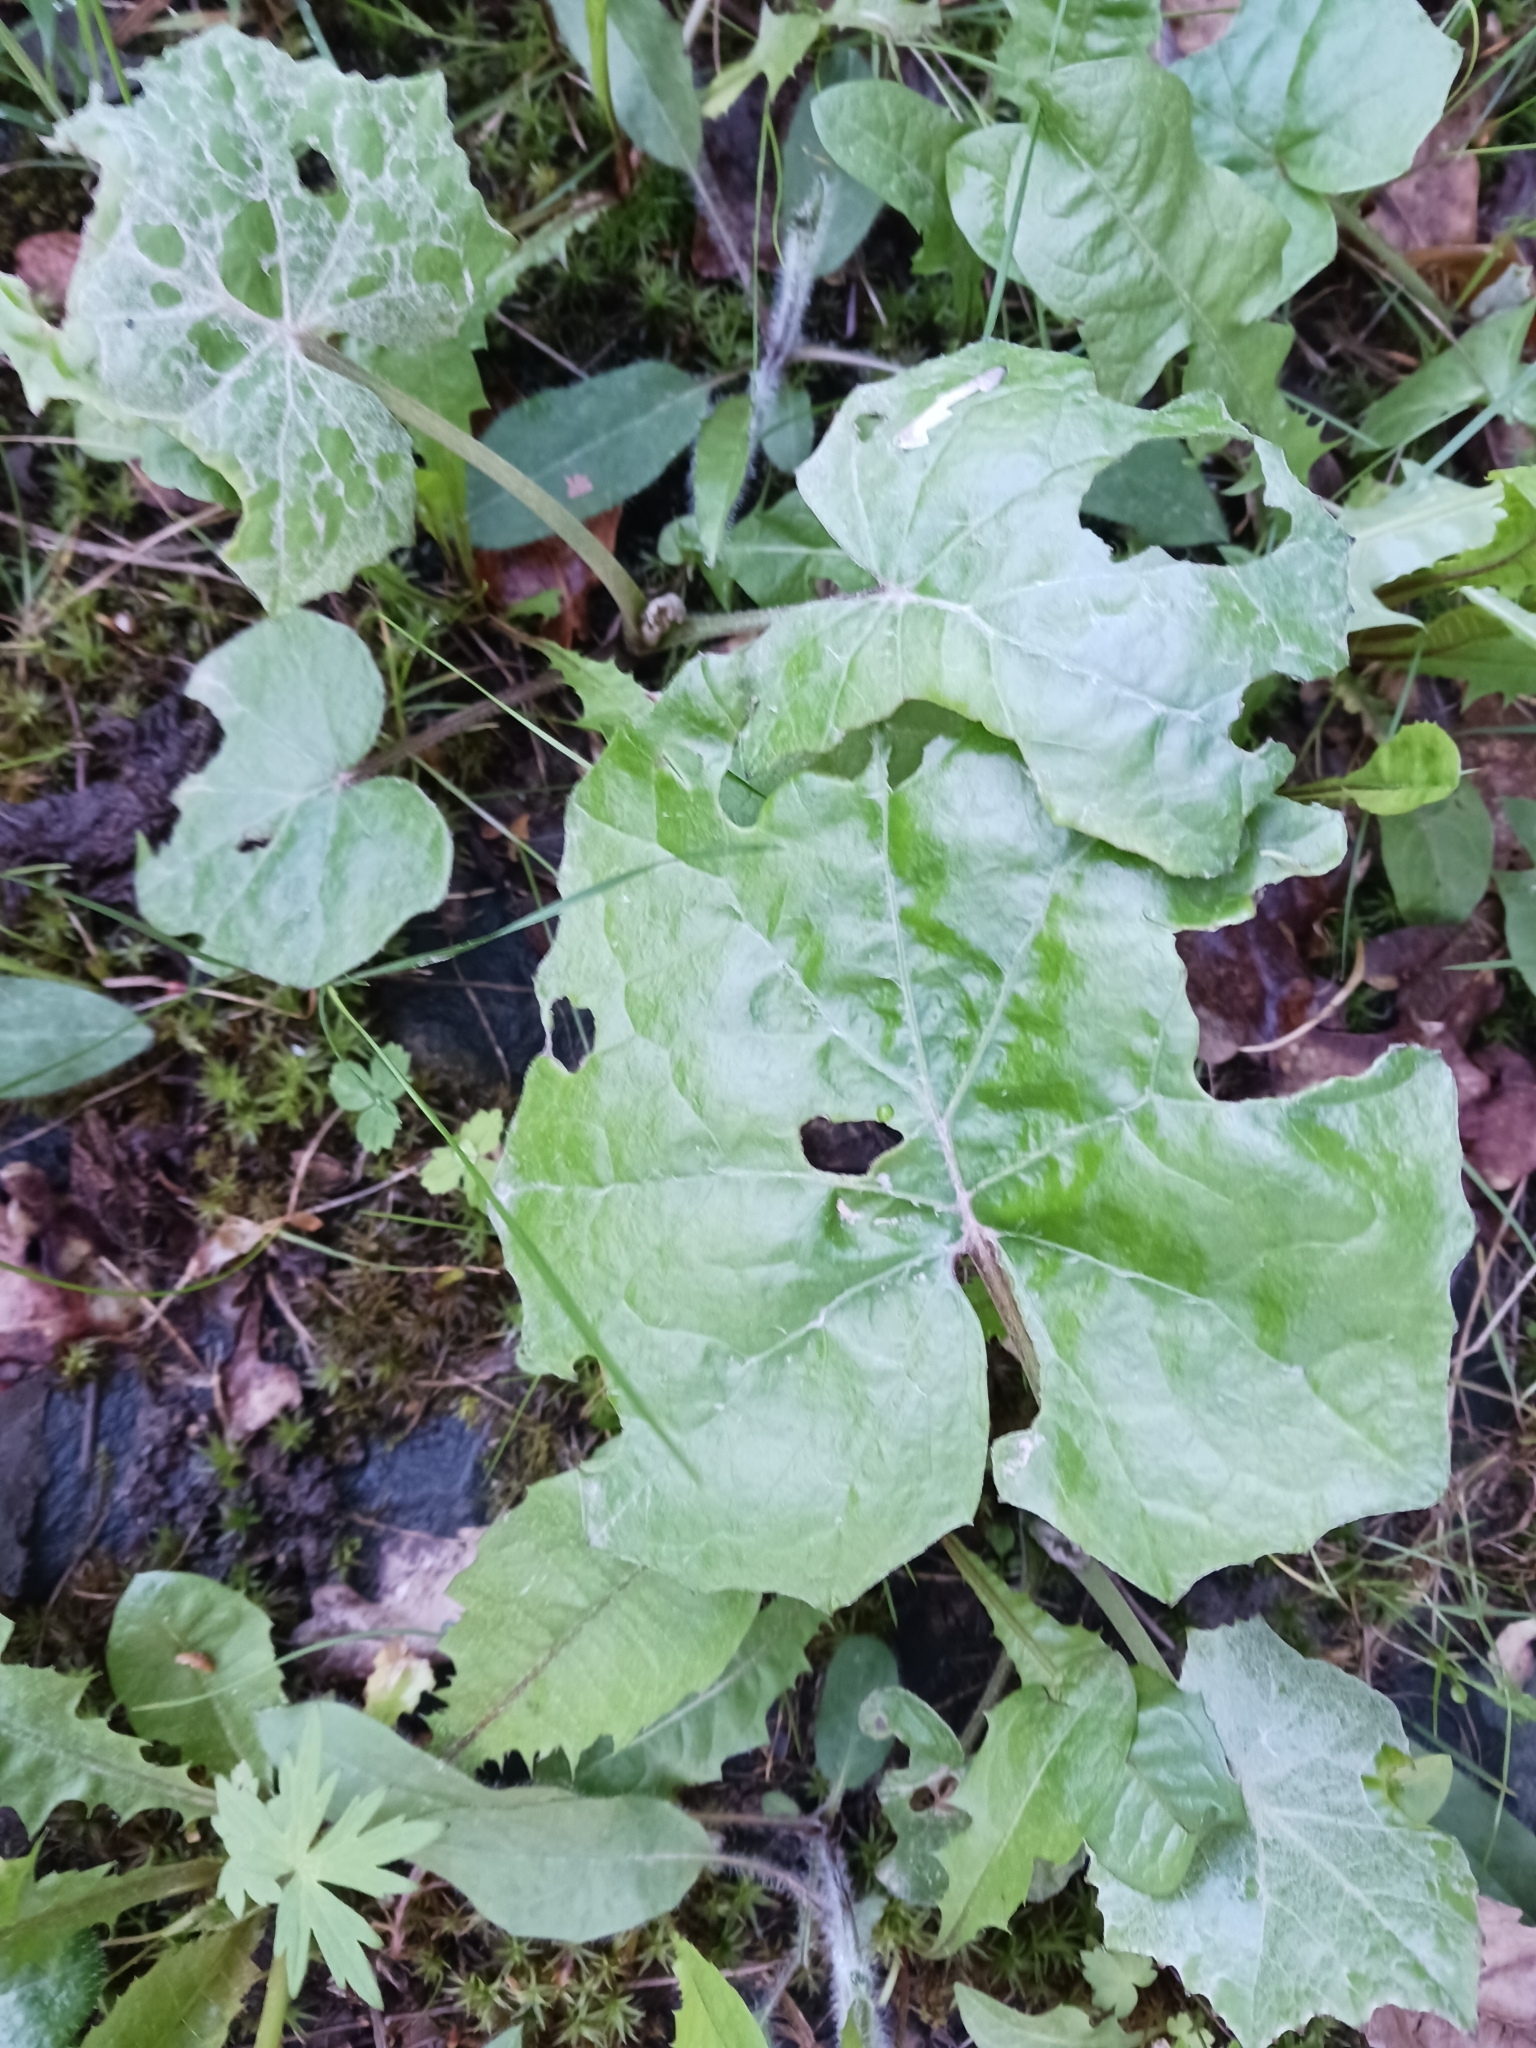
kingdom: Plantae
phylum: Tracheophyta
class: Magnoliopsida
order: Asterales
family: Asteraceae
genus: Tussilago
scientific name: Tussilago farfara
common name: Coltsfoot
